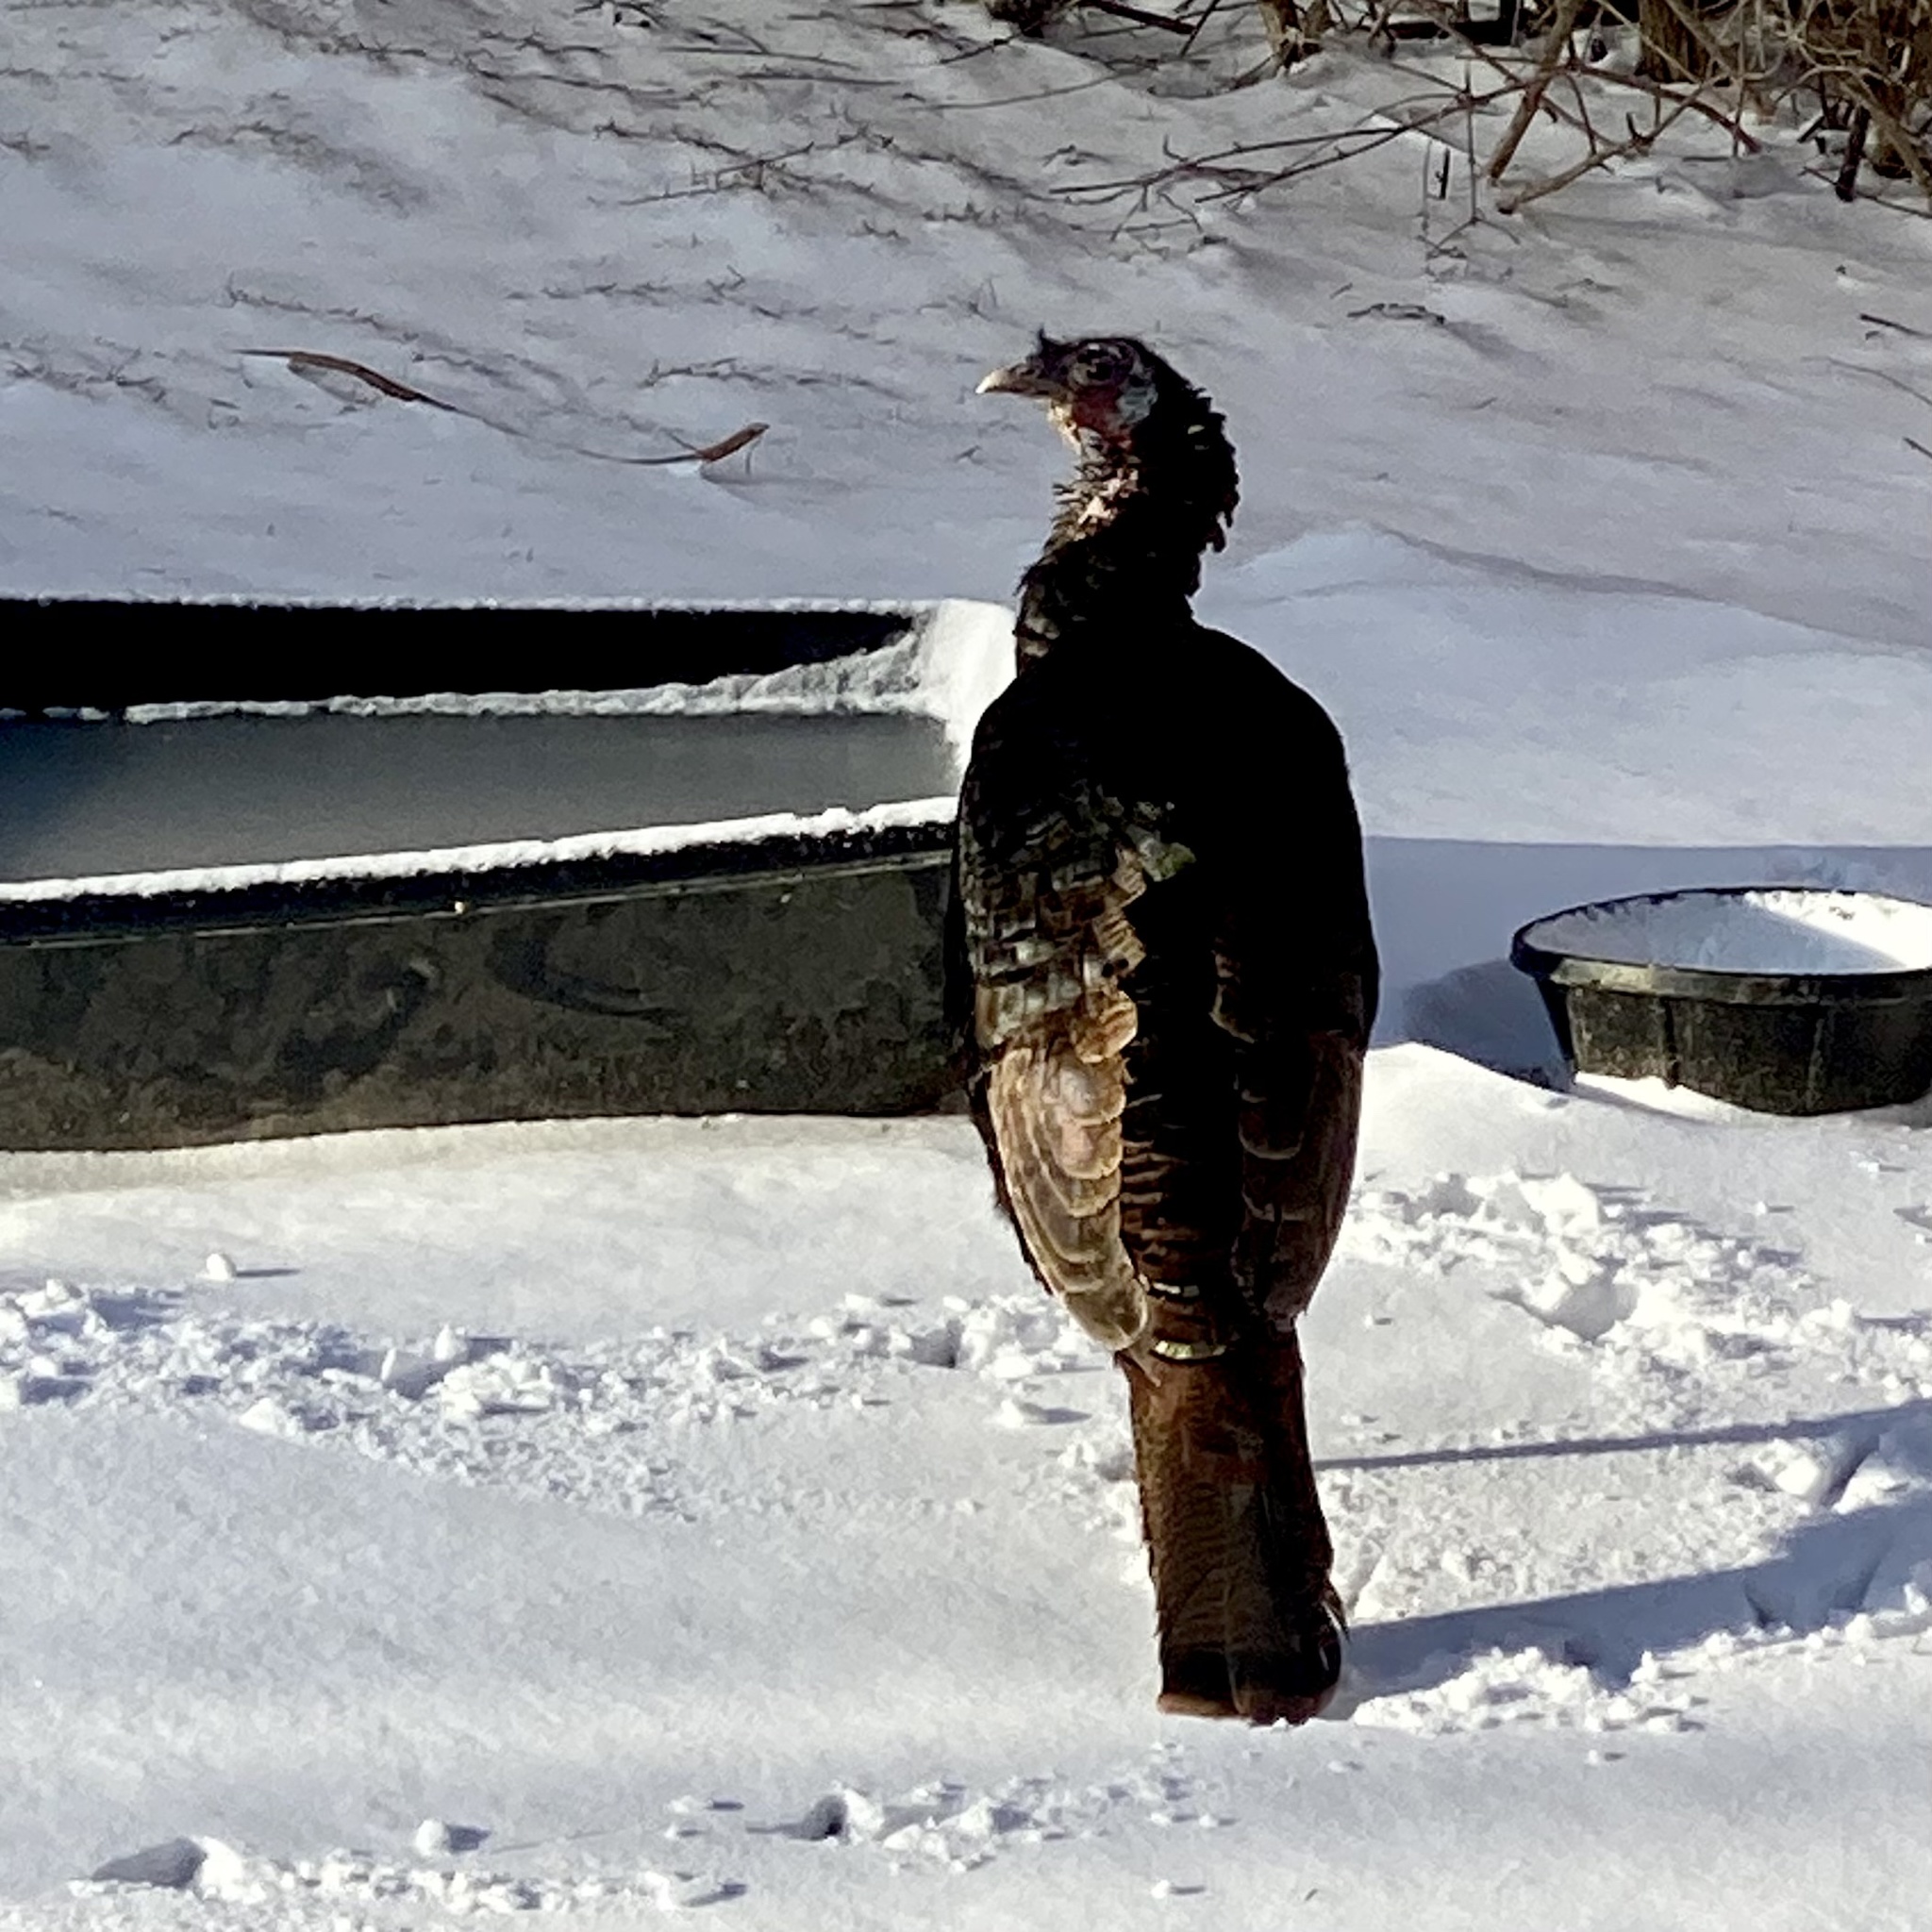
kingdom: Animalia
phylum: Chordata
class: Aves
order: Galliformes
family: Phasianidae
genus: Meleagris
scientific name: Meleagris gallopavo
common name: Wild turkey
